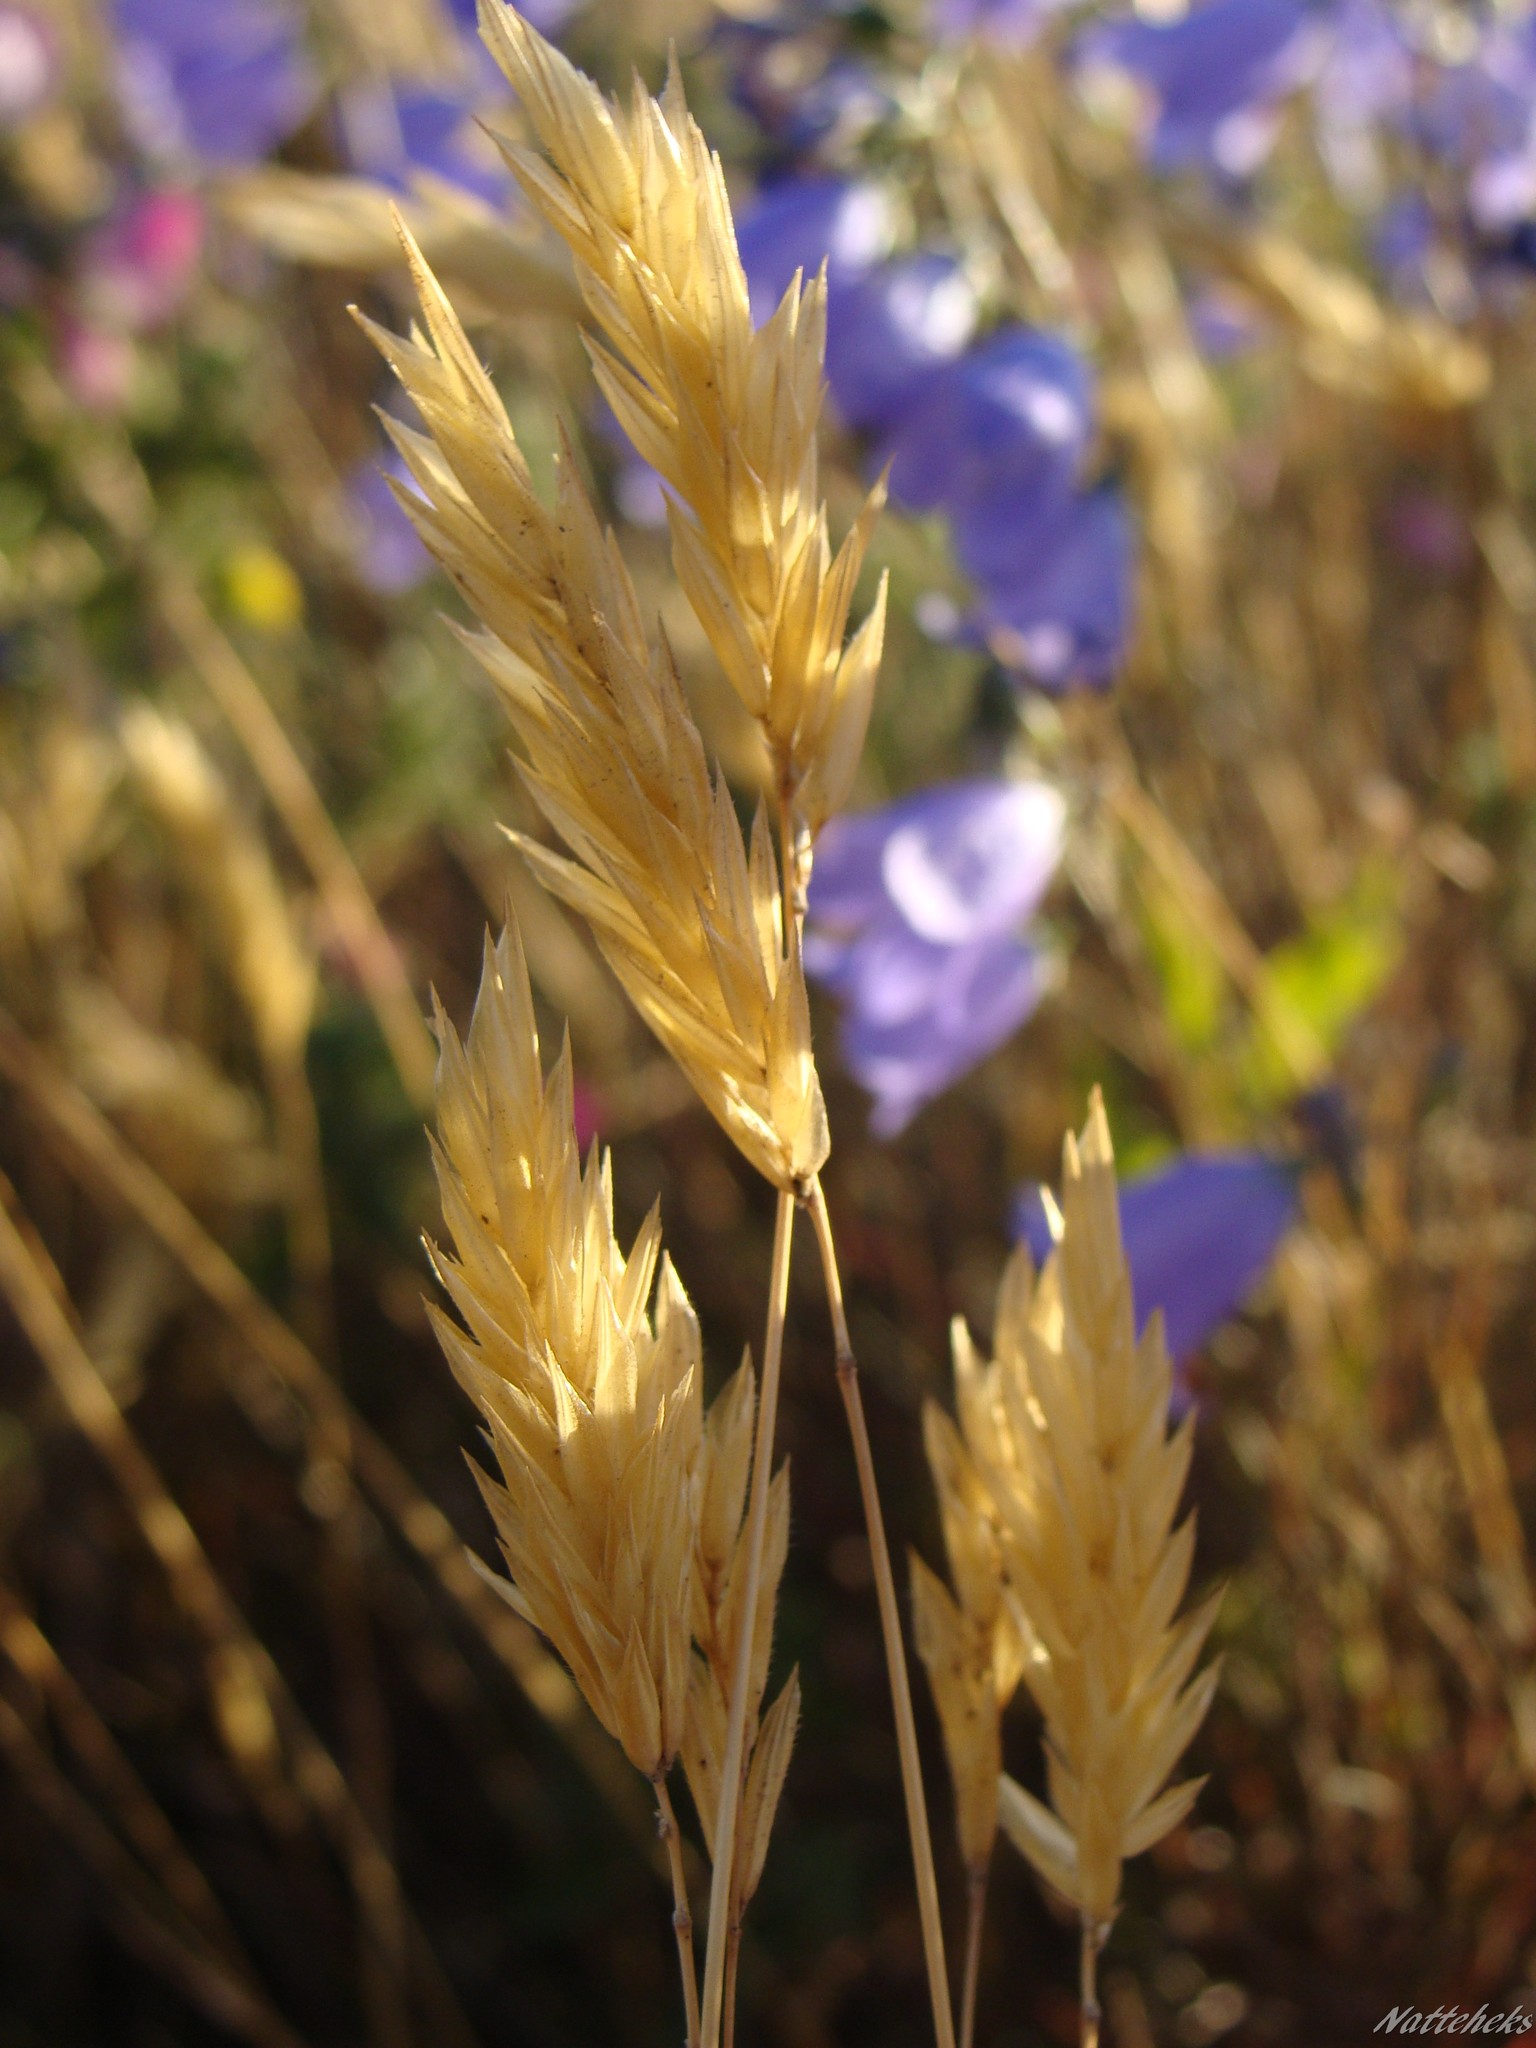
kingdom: Plantae
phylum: Tracheophyta
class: Liliopsida
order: Poales
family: Poaceae
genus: Anthoxanthum
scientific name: Anthoxanthum odoratum
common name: Sweet vernalgrass
